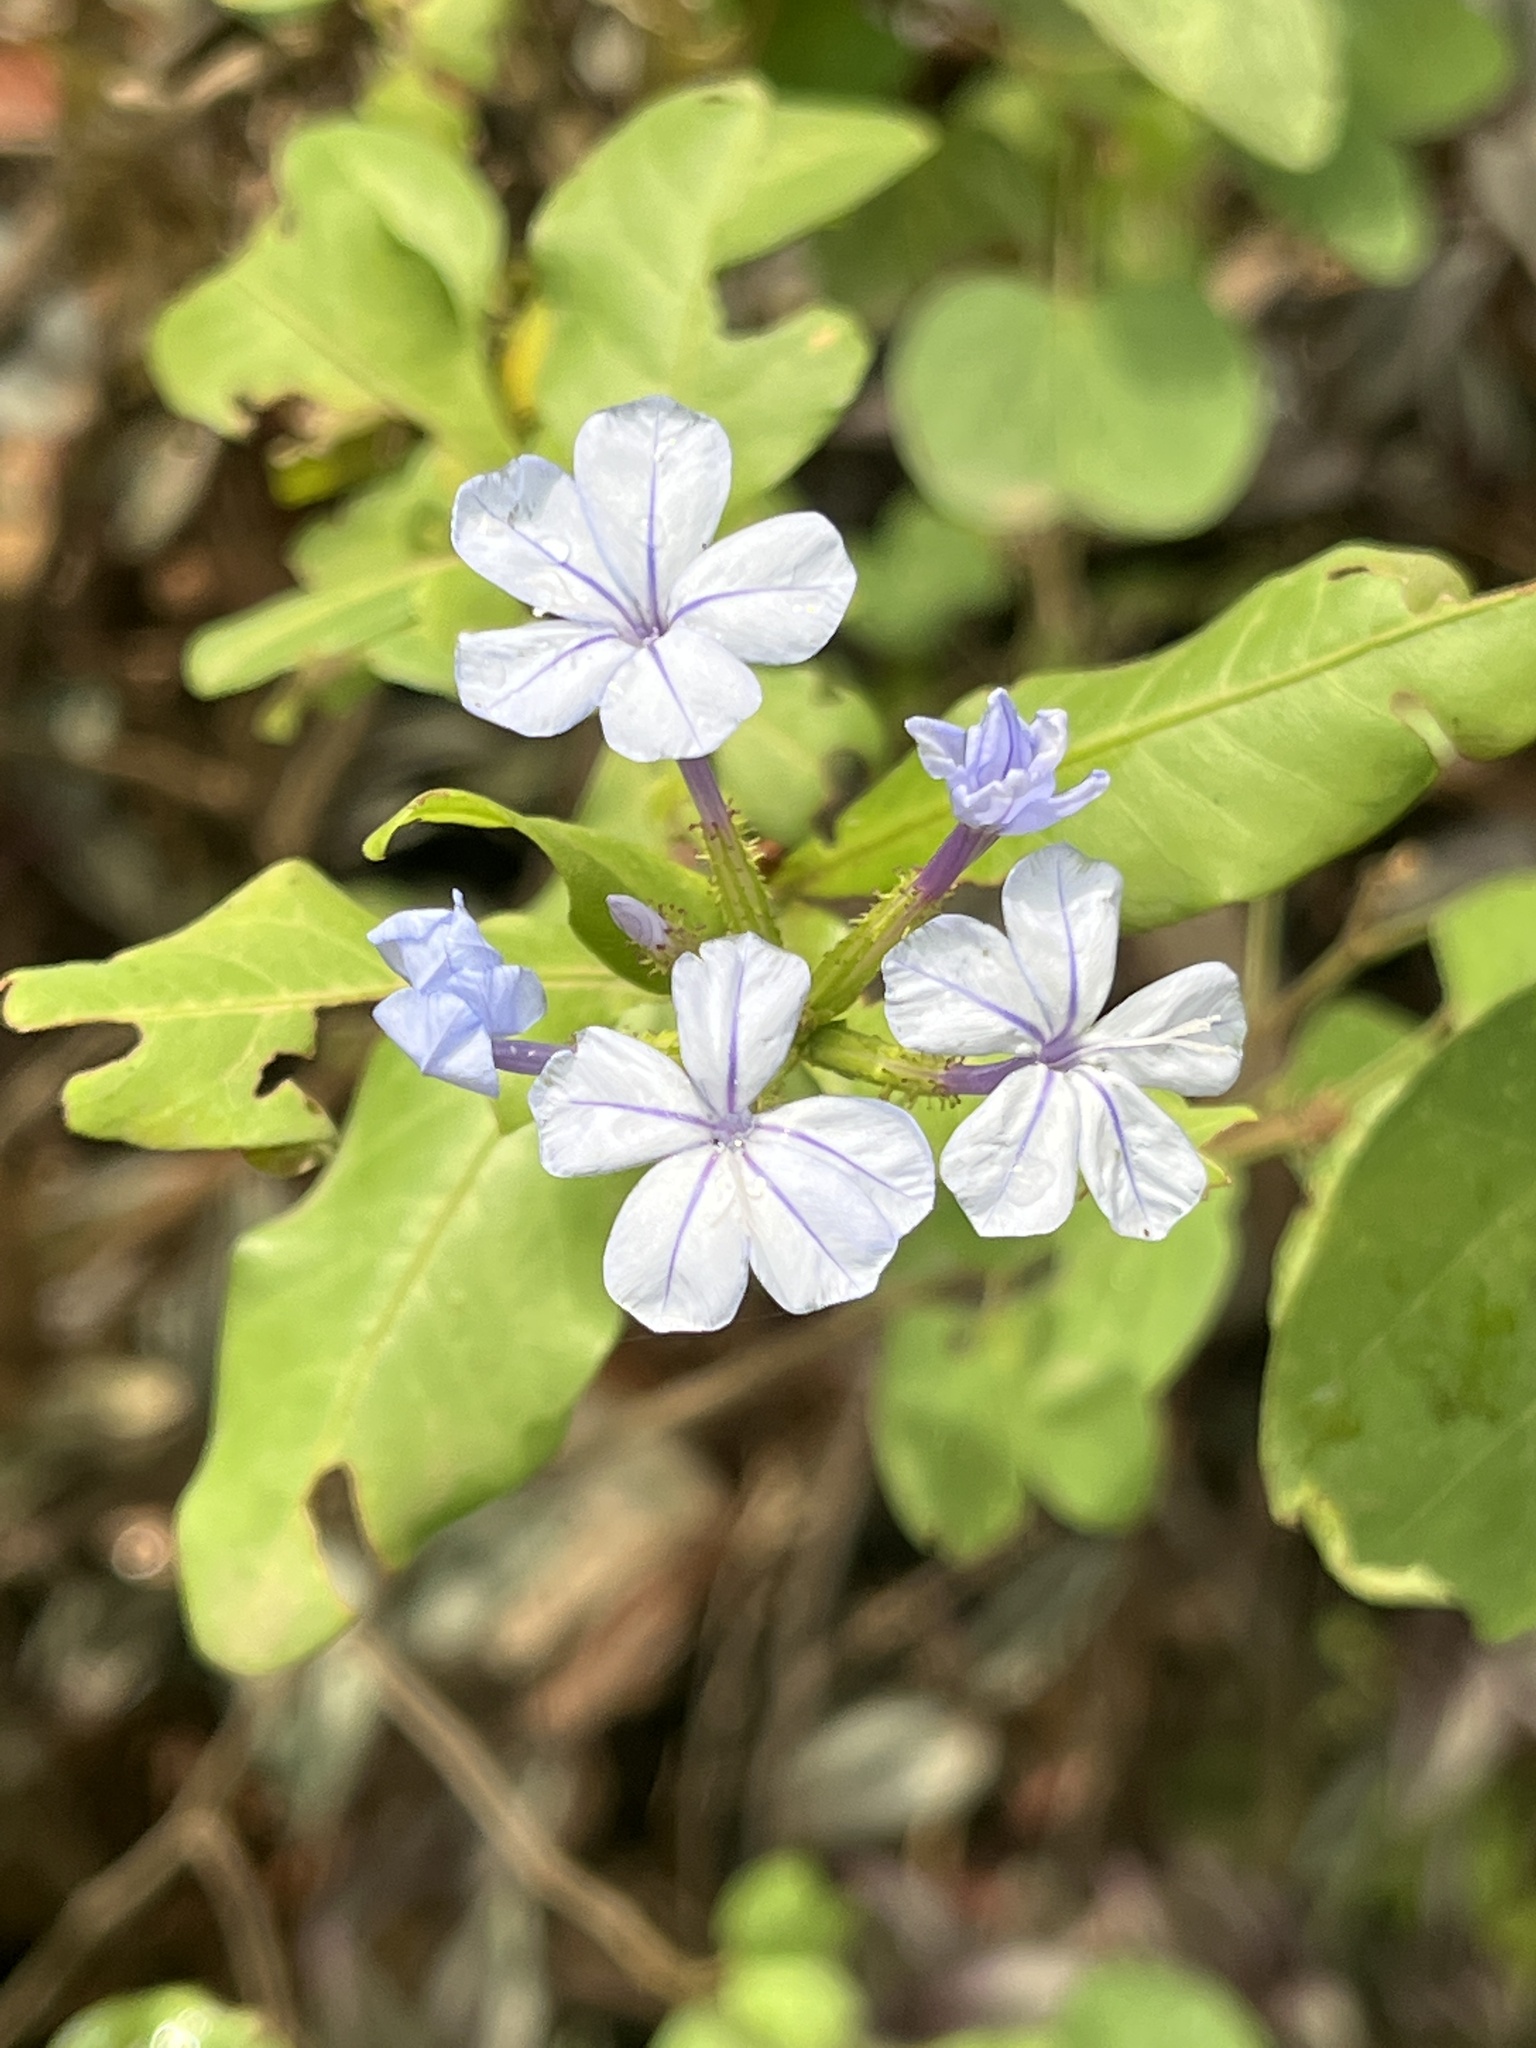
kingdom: Plantae
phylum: Tracheophyta
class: Magnoliopsida
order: Caryophyllales
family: Plumbaginaceae
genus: Plumbago
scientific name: Plumbago auriculata
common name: Cape leadwort
